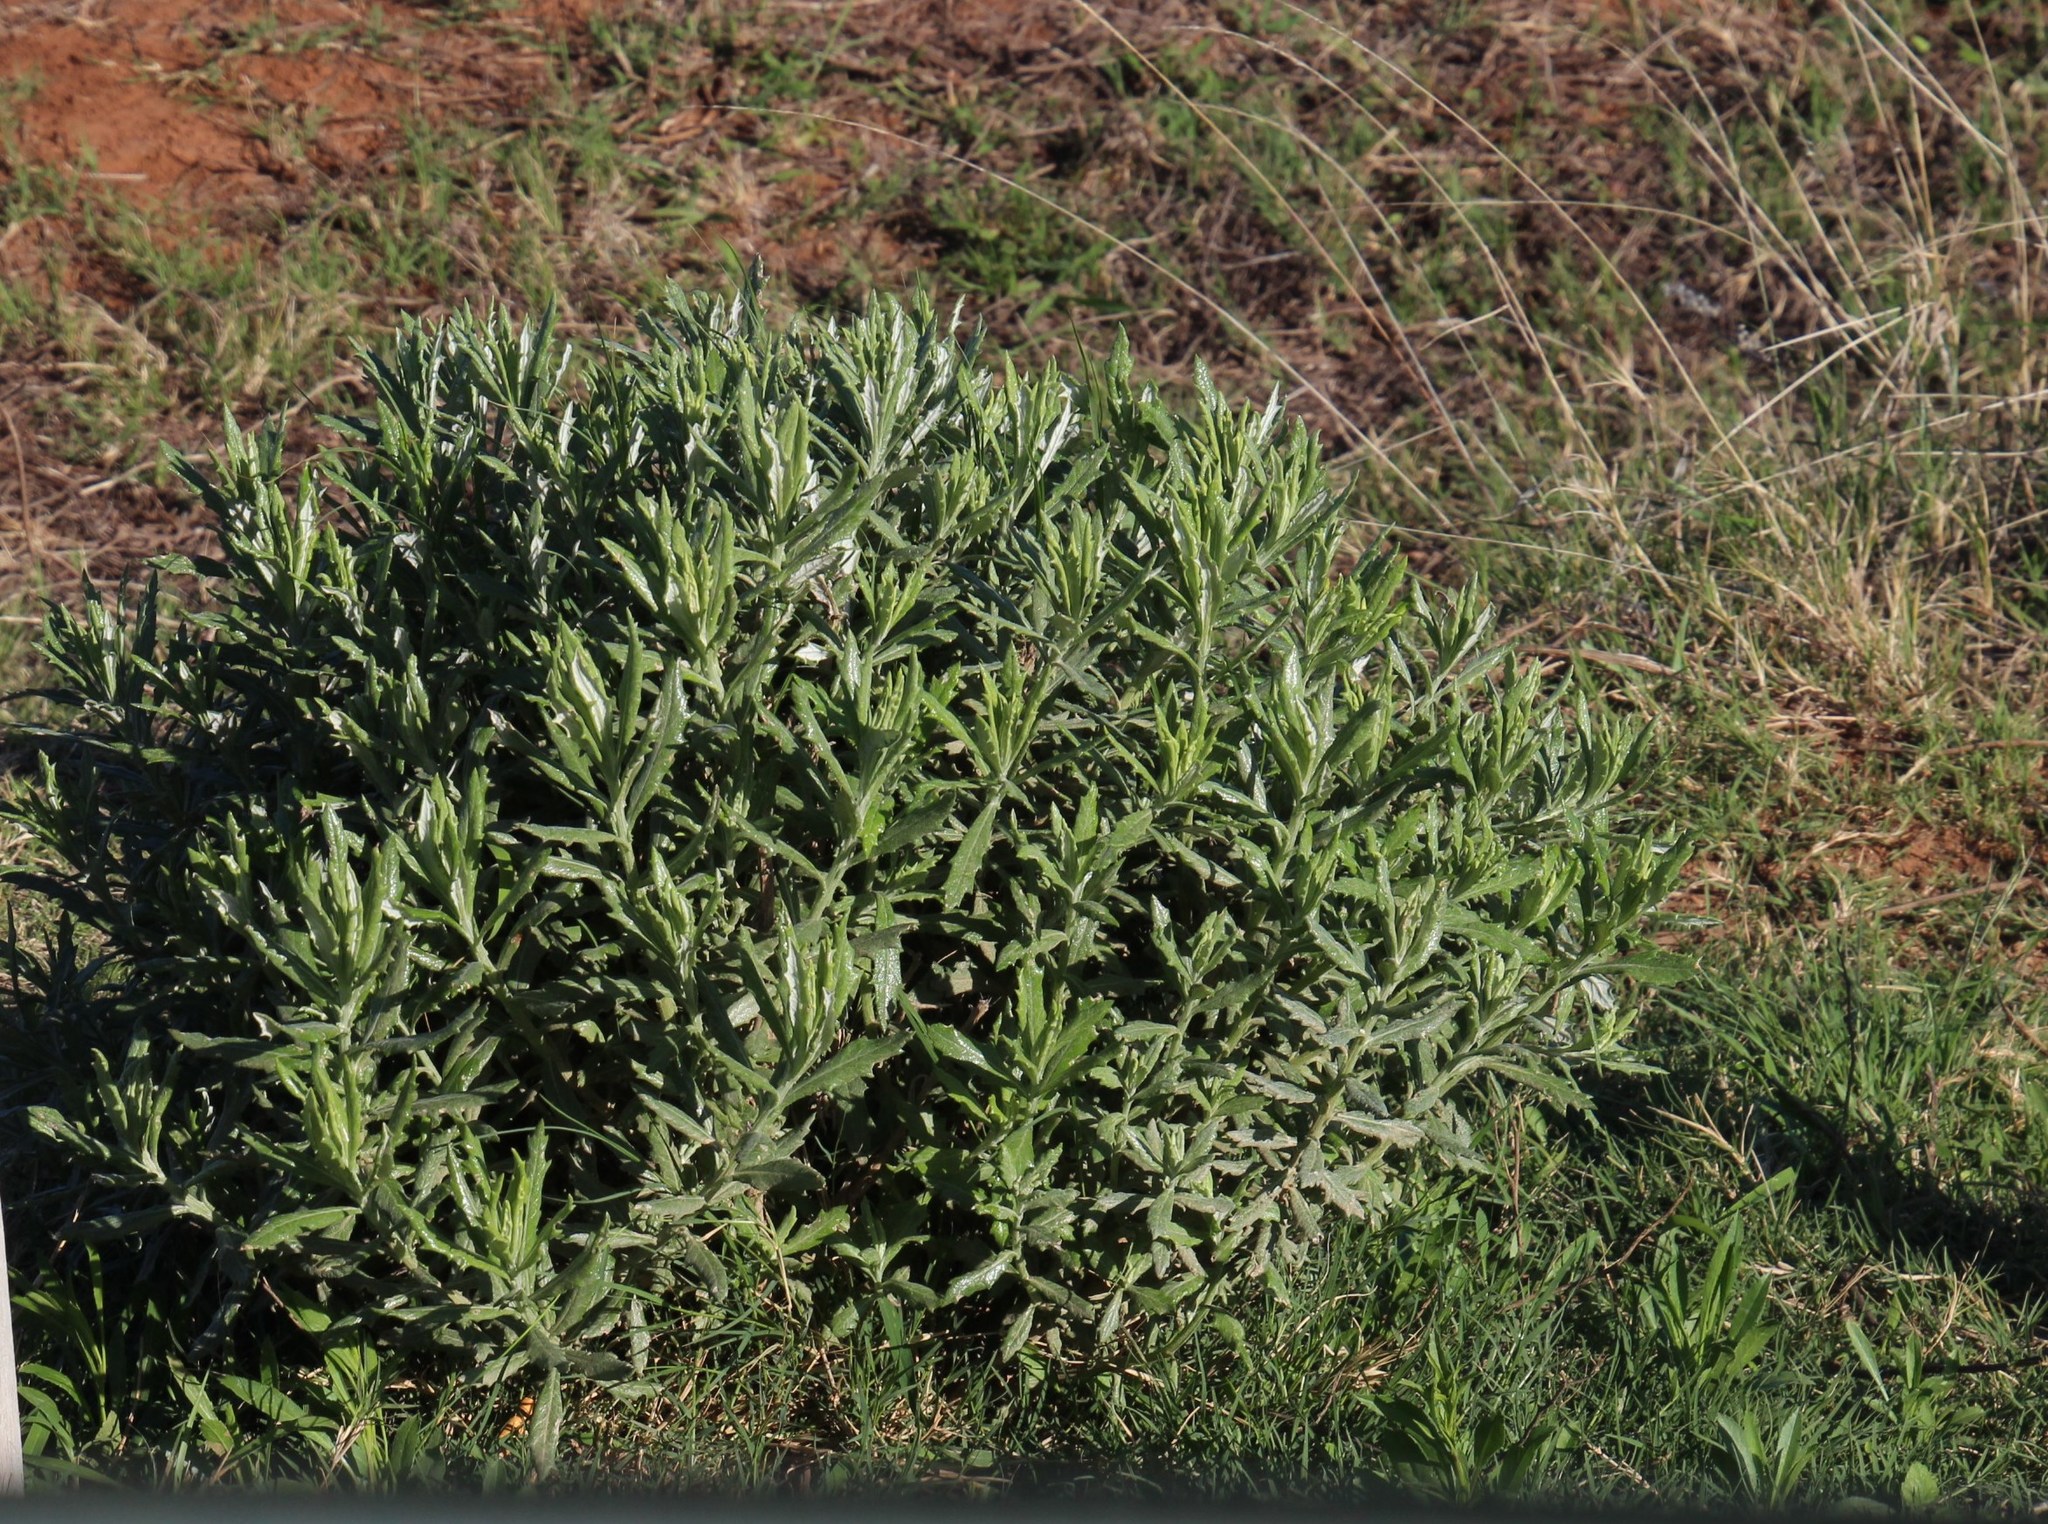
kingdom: Plantae
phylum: Tracheophyta
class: Magnoliopsida
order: Asterales
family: Asteraceae
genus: Senecio
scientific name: Senecio pterophorus
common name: Shoddy ragwort
